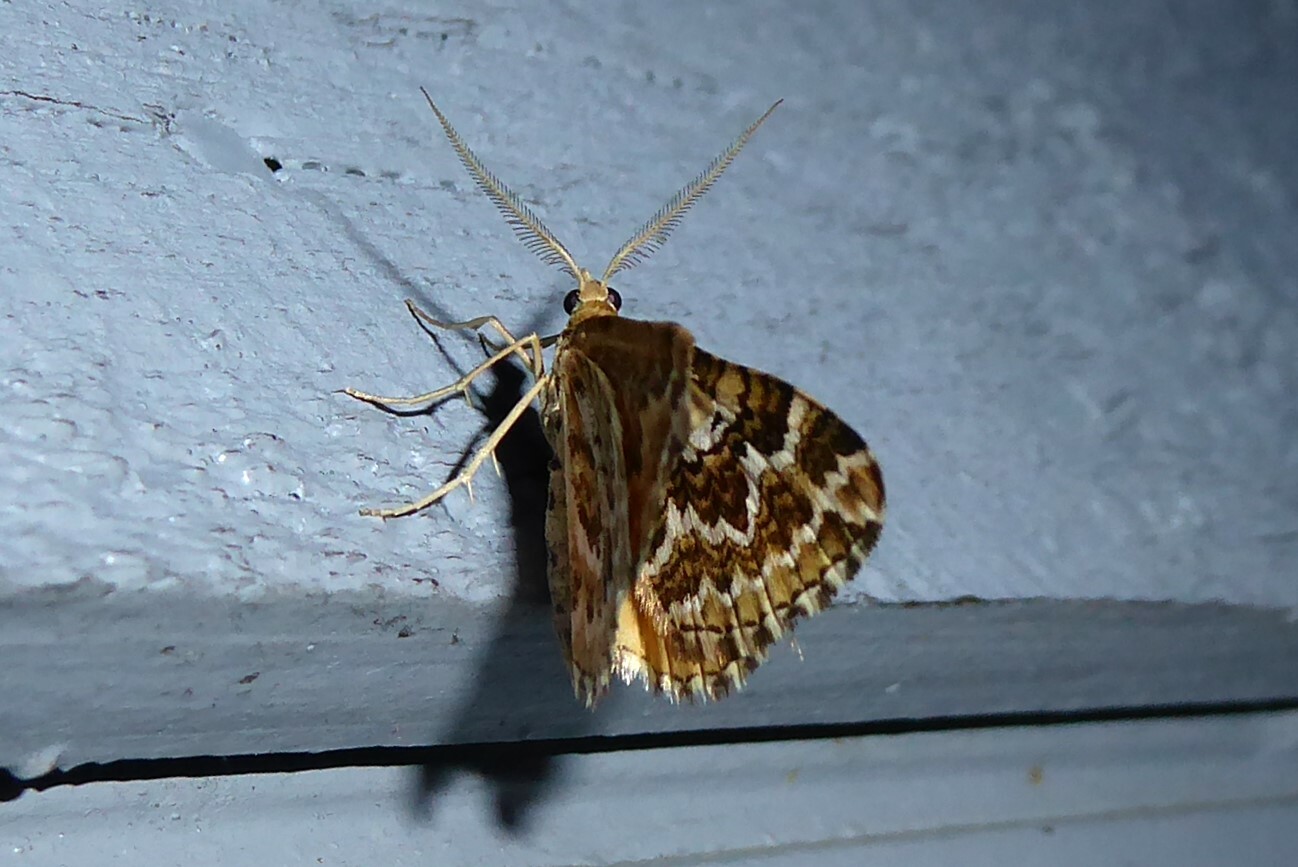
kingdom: Animalia
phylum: Arthropoda
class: Insecta
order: Lepidoptera
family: Geometridae
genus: Asaphodes
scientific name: Asaphodes clarata
